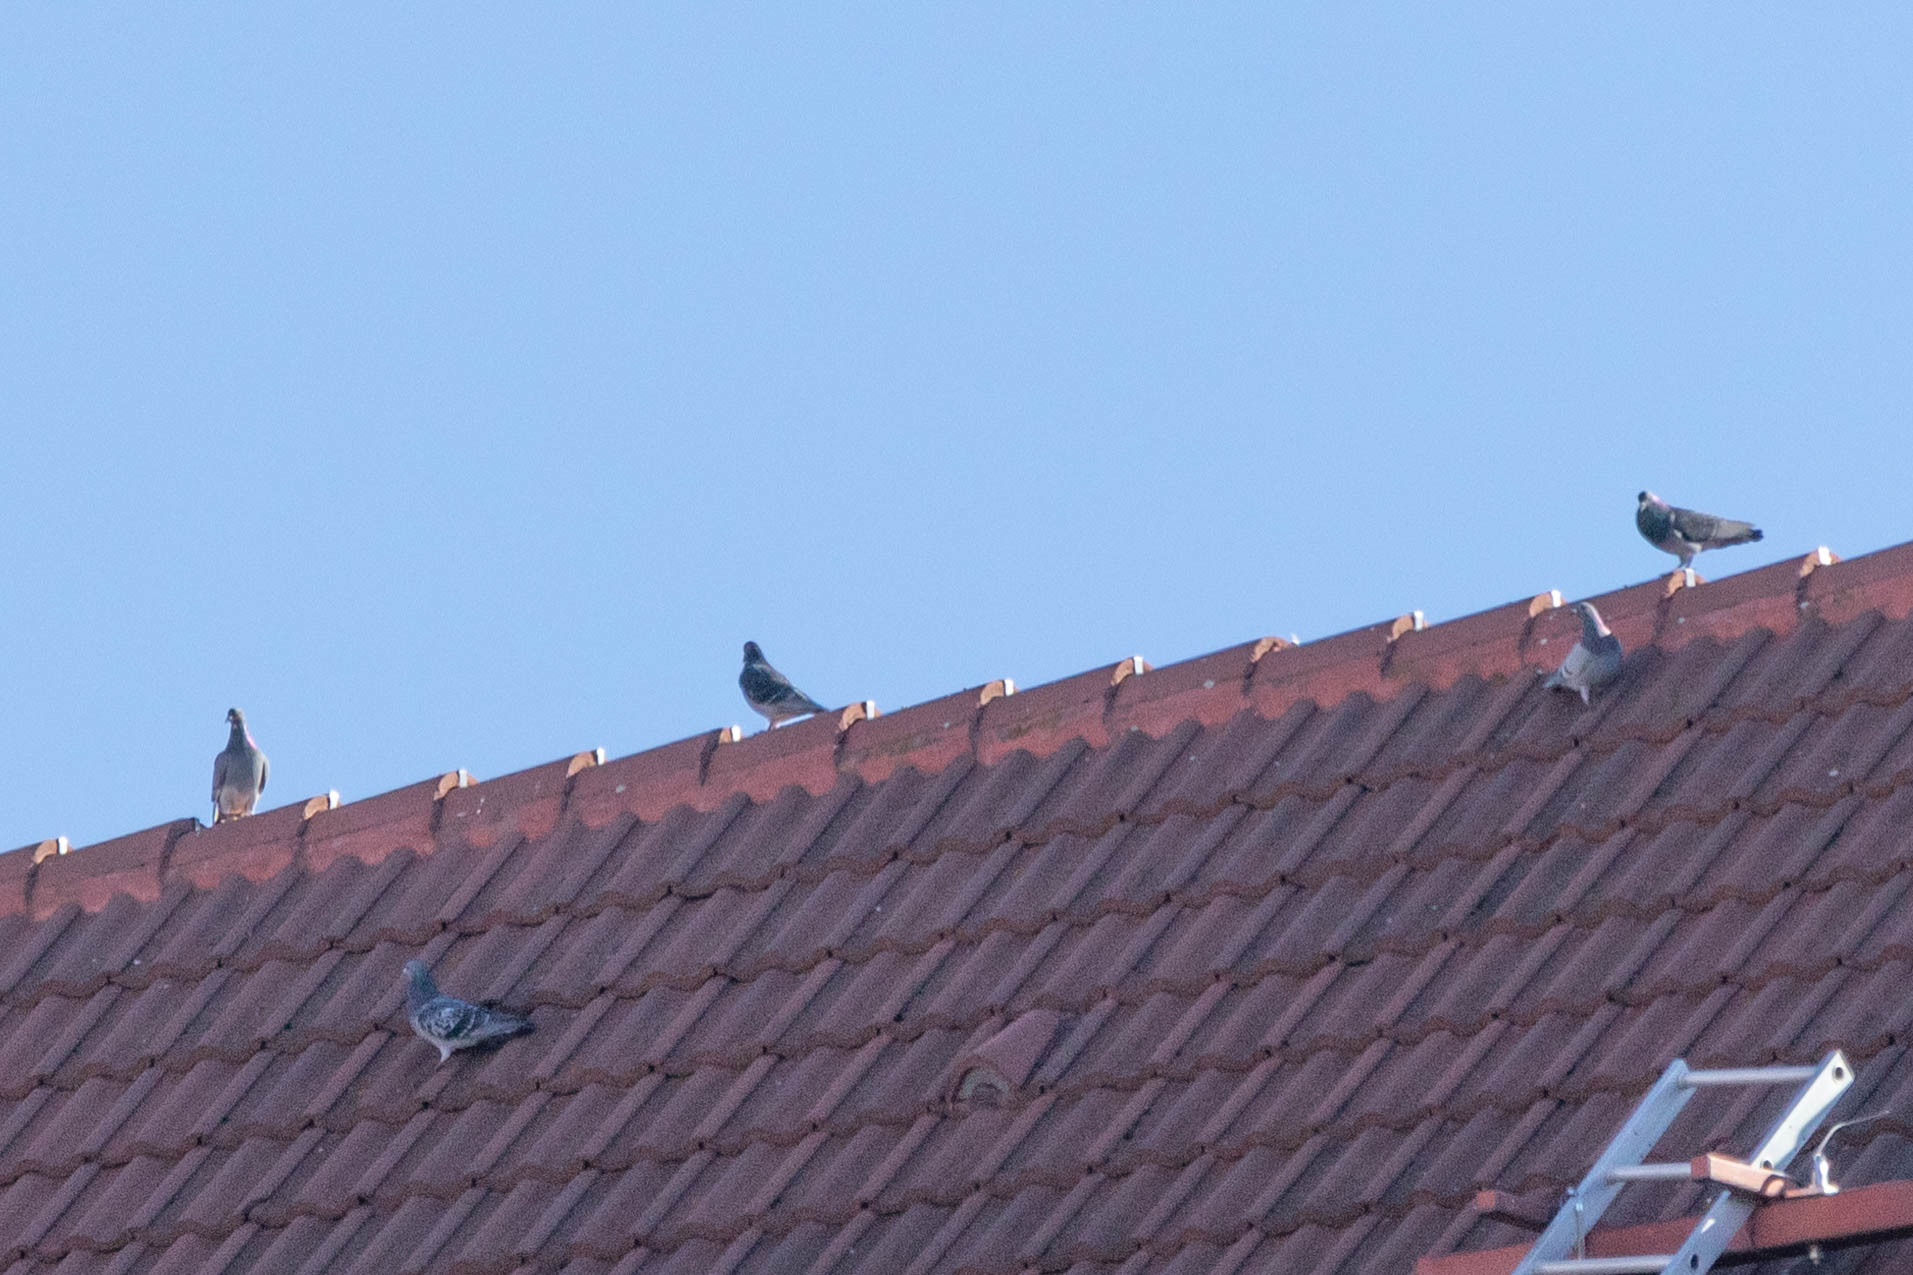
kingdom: Animalia
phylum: Chordata
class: Aves
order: Columbiformes
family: Columbidae
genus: Columba
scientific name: Columba livia
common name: Rock pigeon
